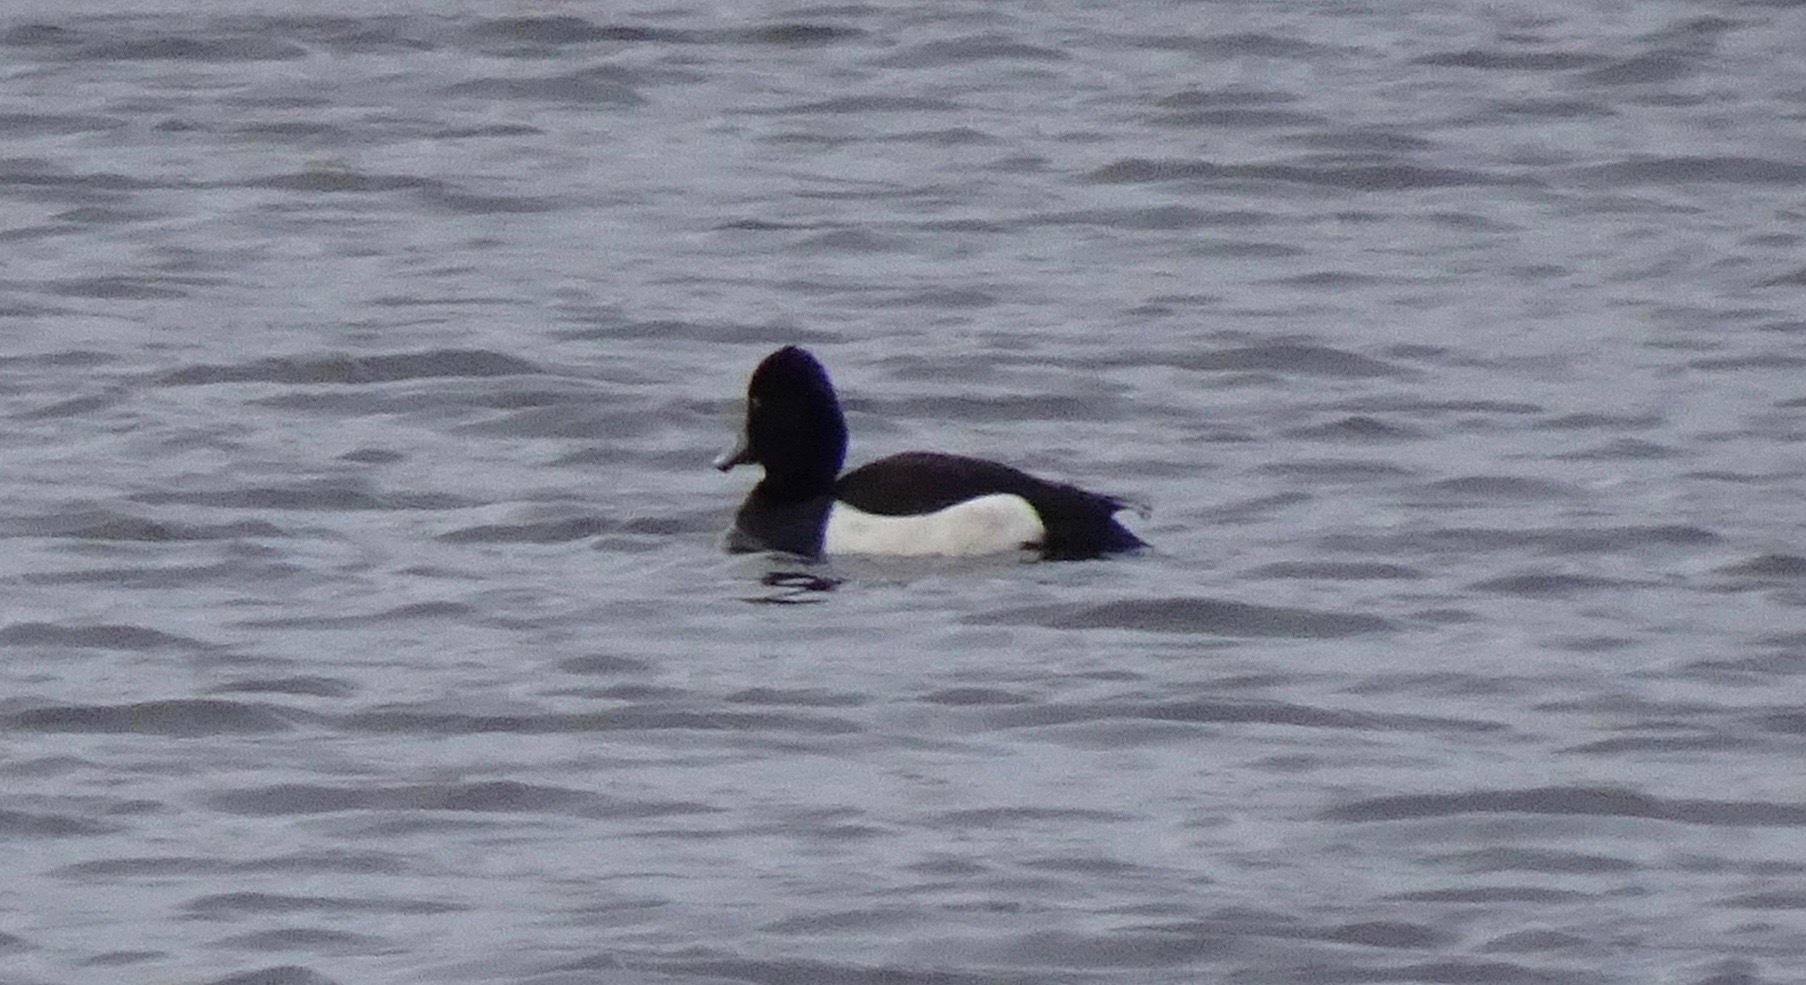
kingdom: Animalia
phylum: Chordata
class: Aves
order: Anseriformes
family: Anatidae
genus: Aythya
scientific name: Aythya fuligula
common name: Tufted duck
